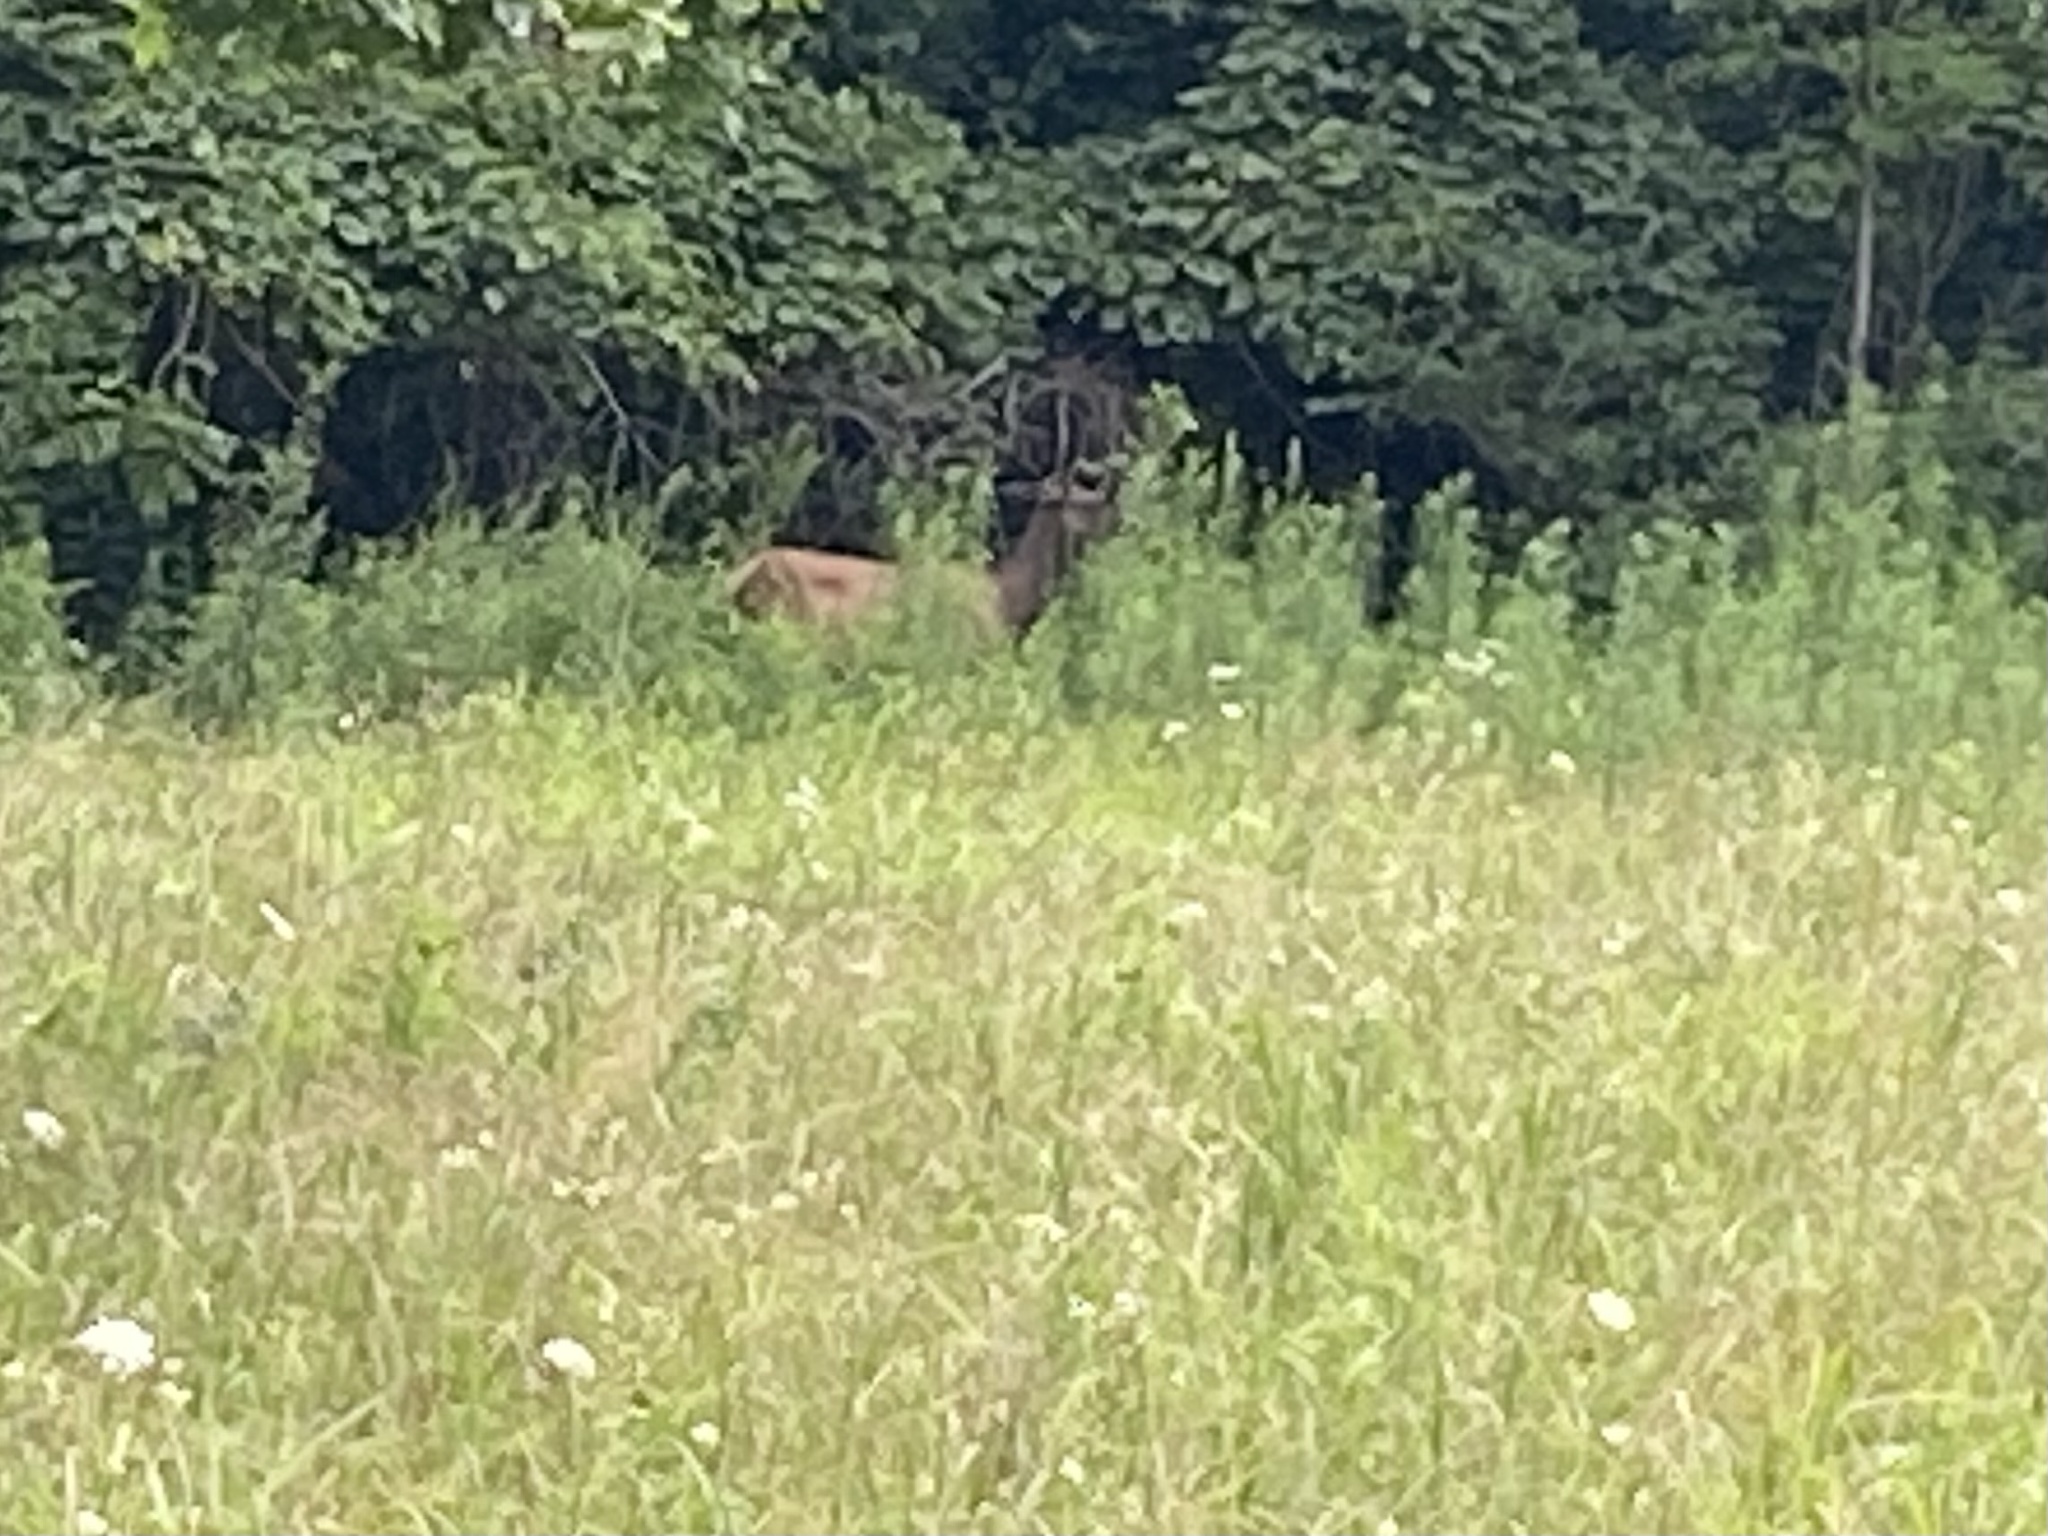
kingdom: Animalia
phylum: Chordata
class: Mammalia
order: Artiodactyla
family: Cervidae
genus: Cervus
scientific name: Cervus elaphus
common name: Red deer
